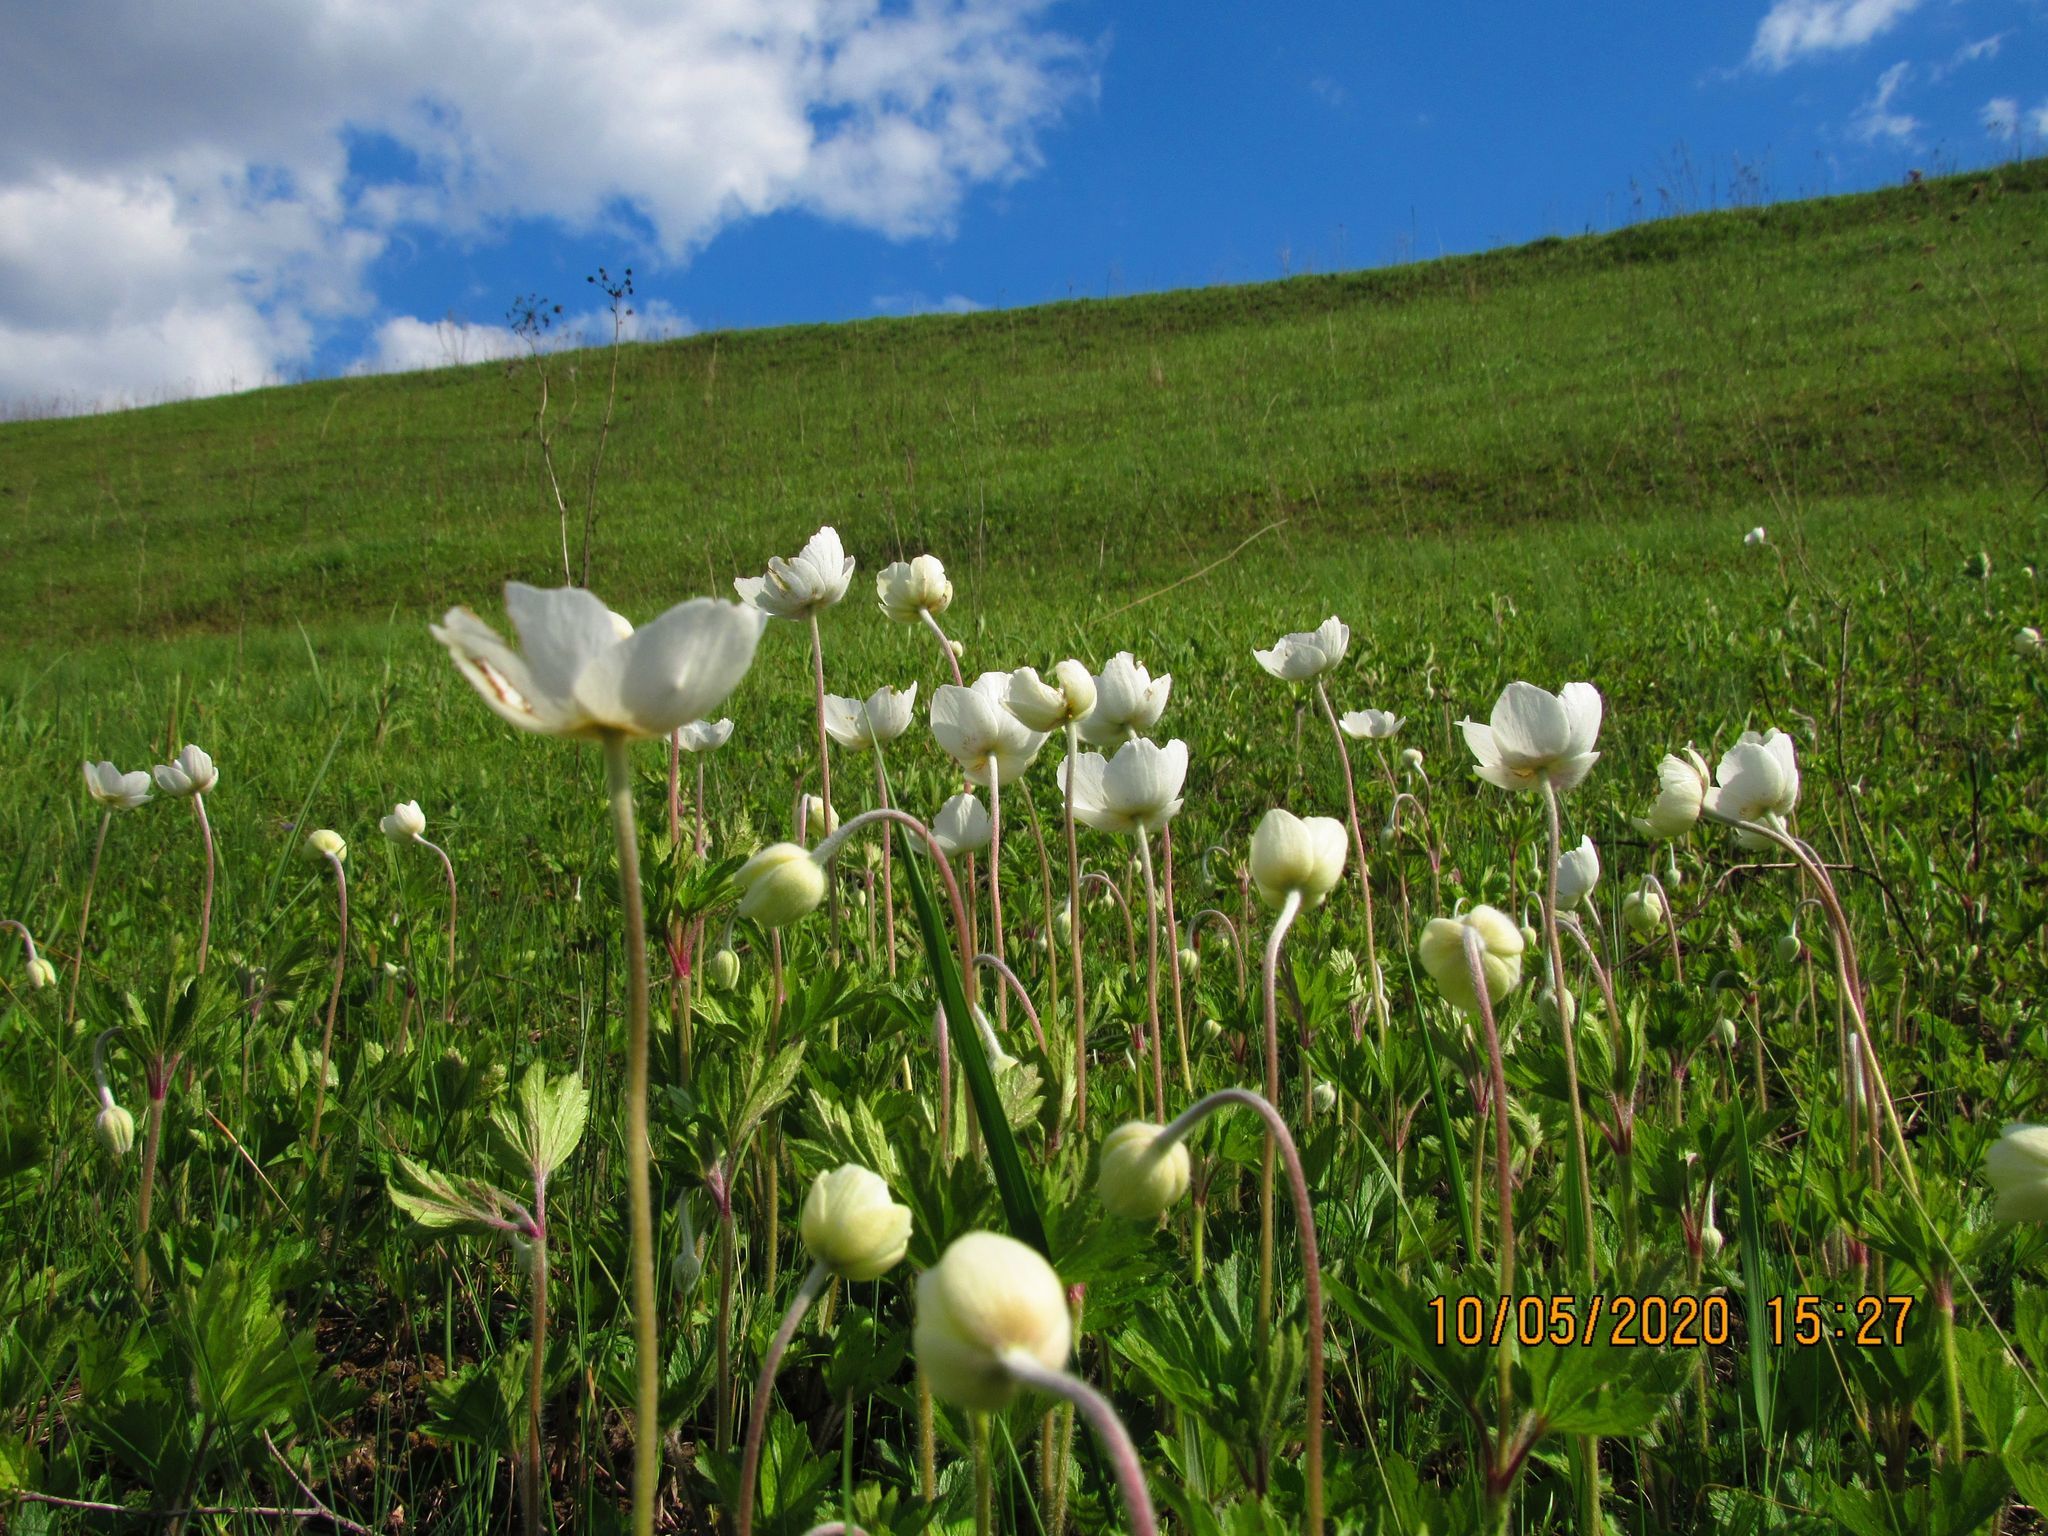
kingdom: Plantae
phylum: Tracheophyta
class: Magnoliopsida
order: Ranunculales
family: Ranunculaceae
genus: Anemone
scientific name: Anemone sylvestris
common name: Snowdrop anemone
